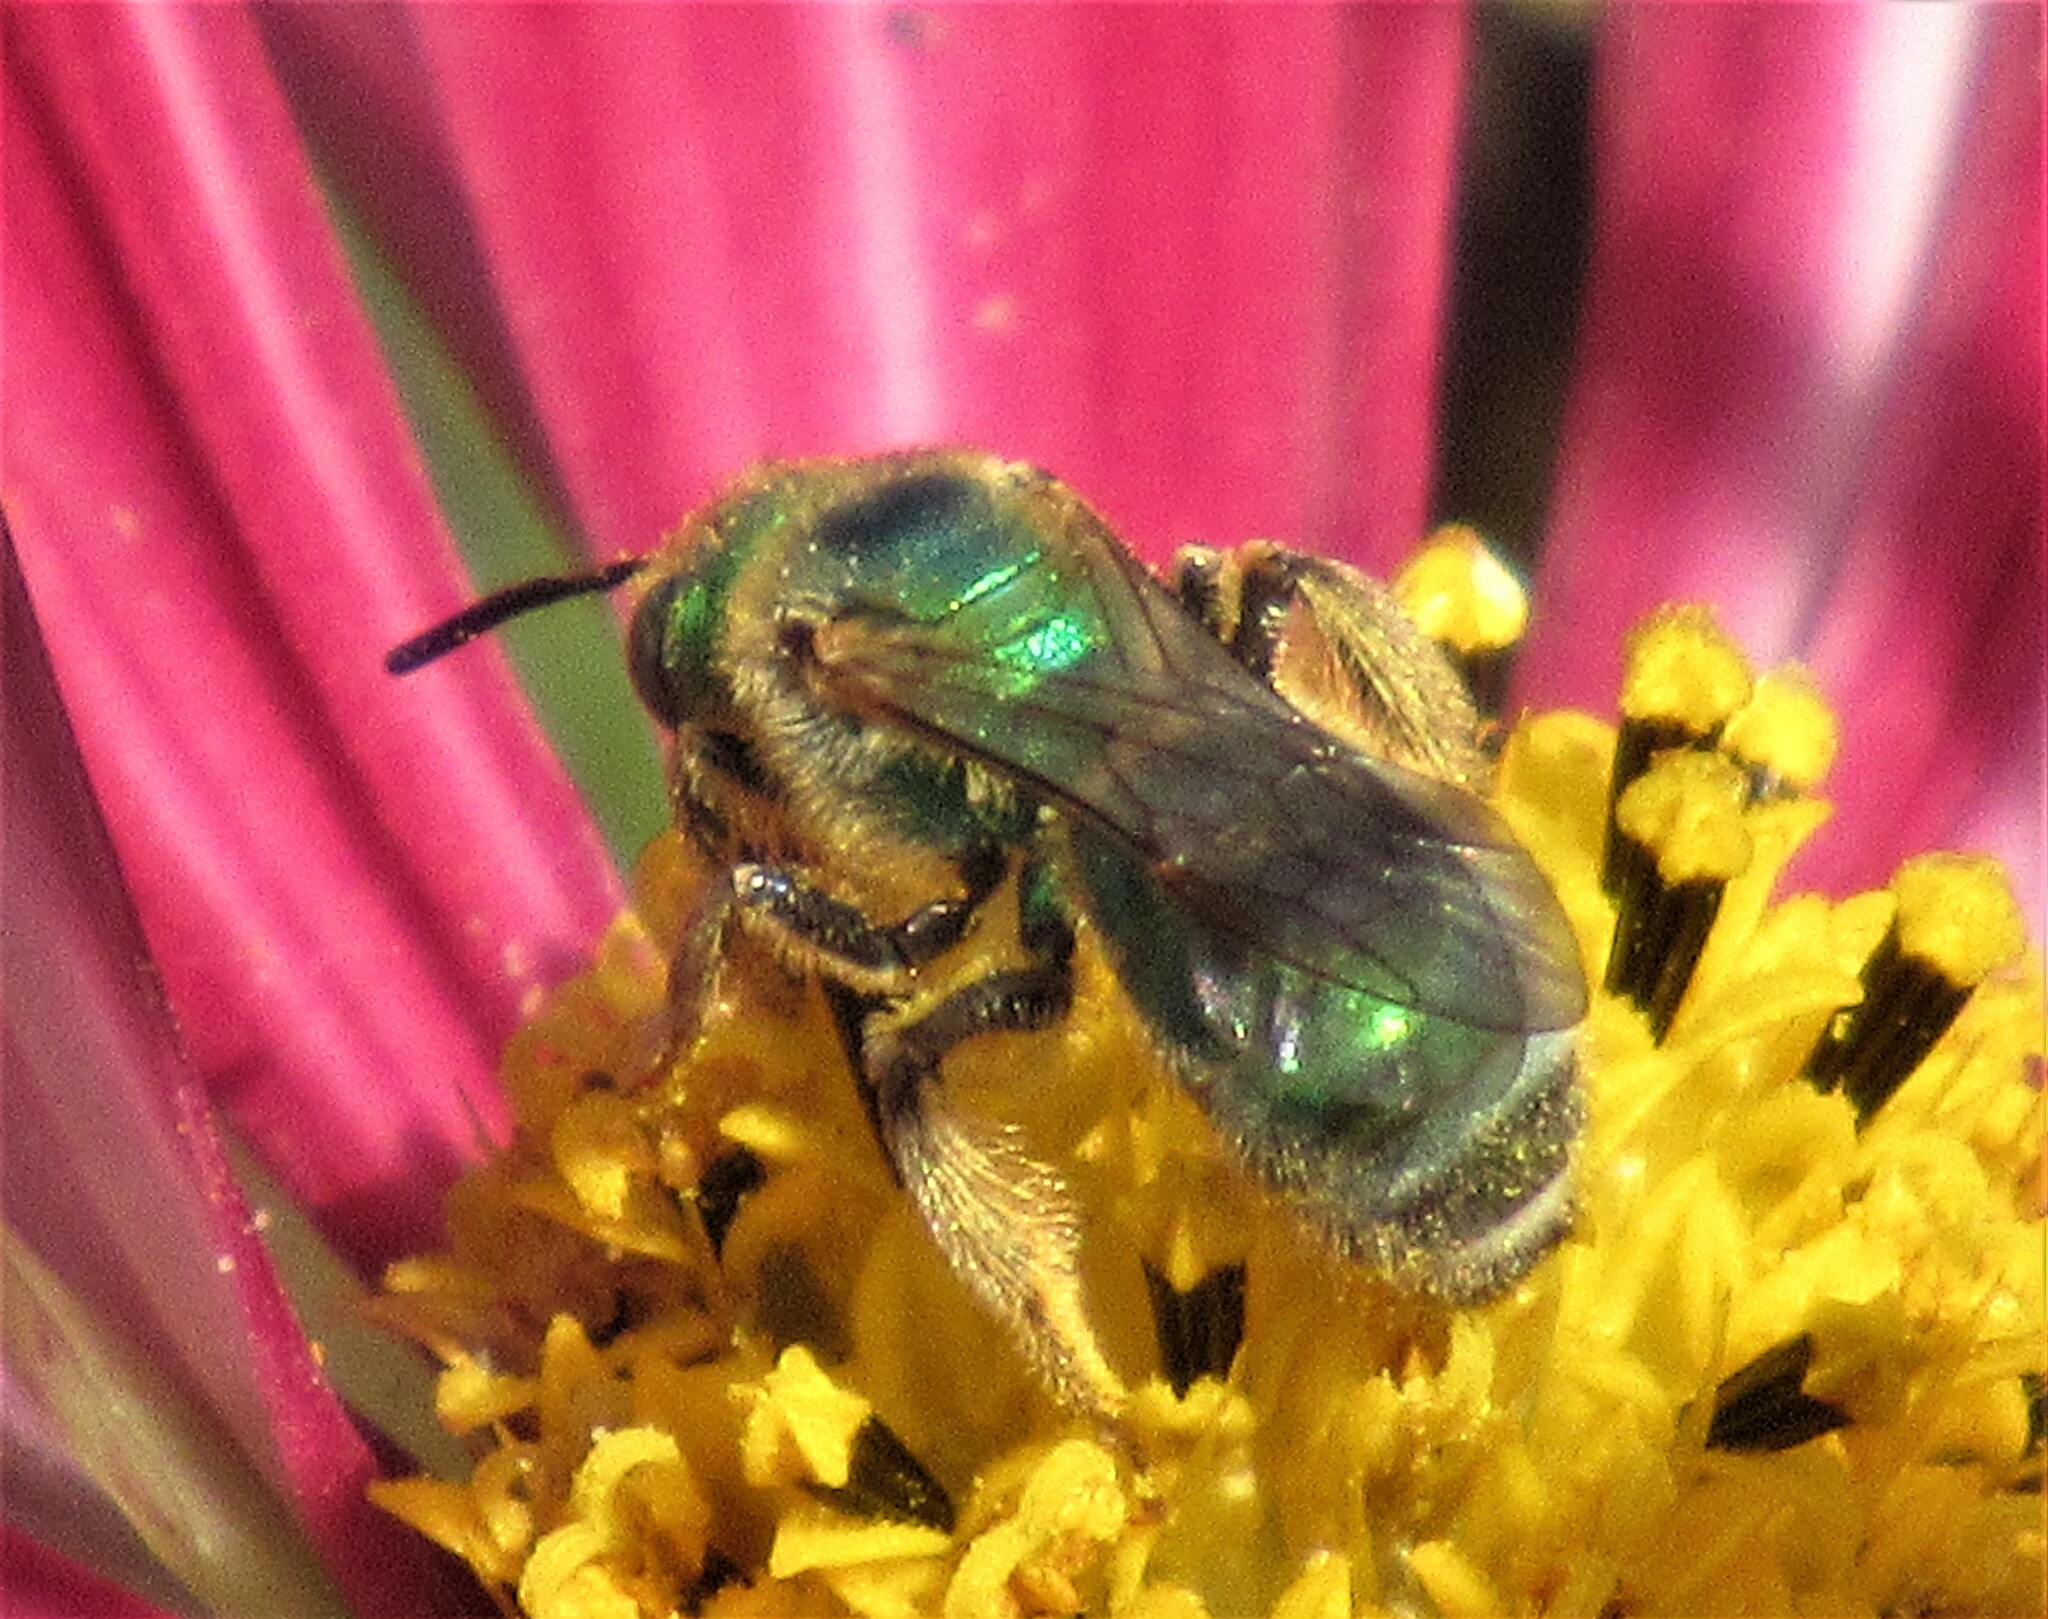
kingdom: Animalia
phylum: Arthropoda
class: Insecta
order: Hymenoptera
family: Halictidae
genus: Agapostemon
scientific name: Agapostemon texanus
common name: Texas striped sweat bee
